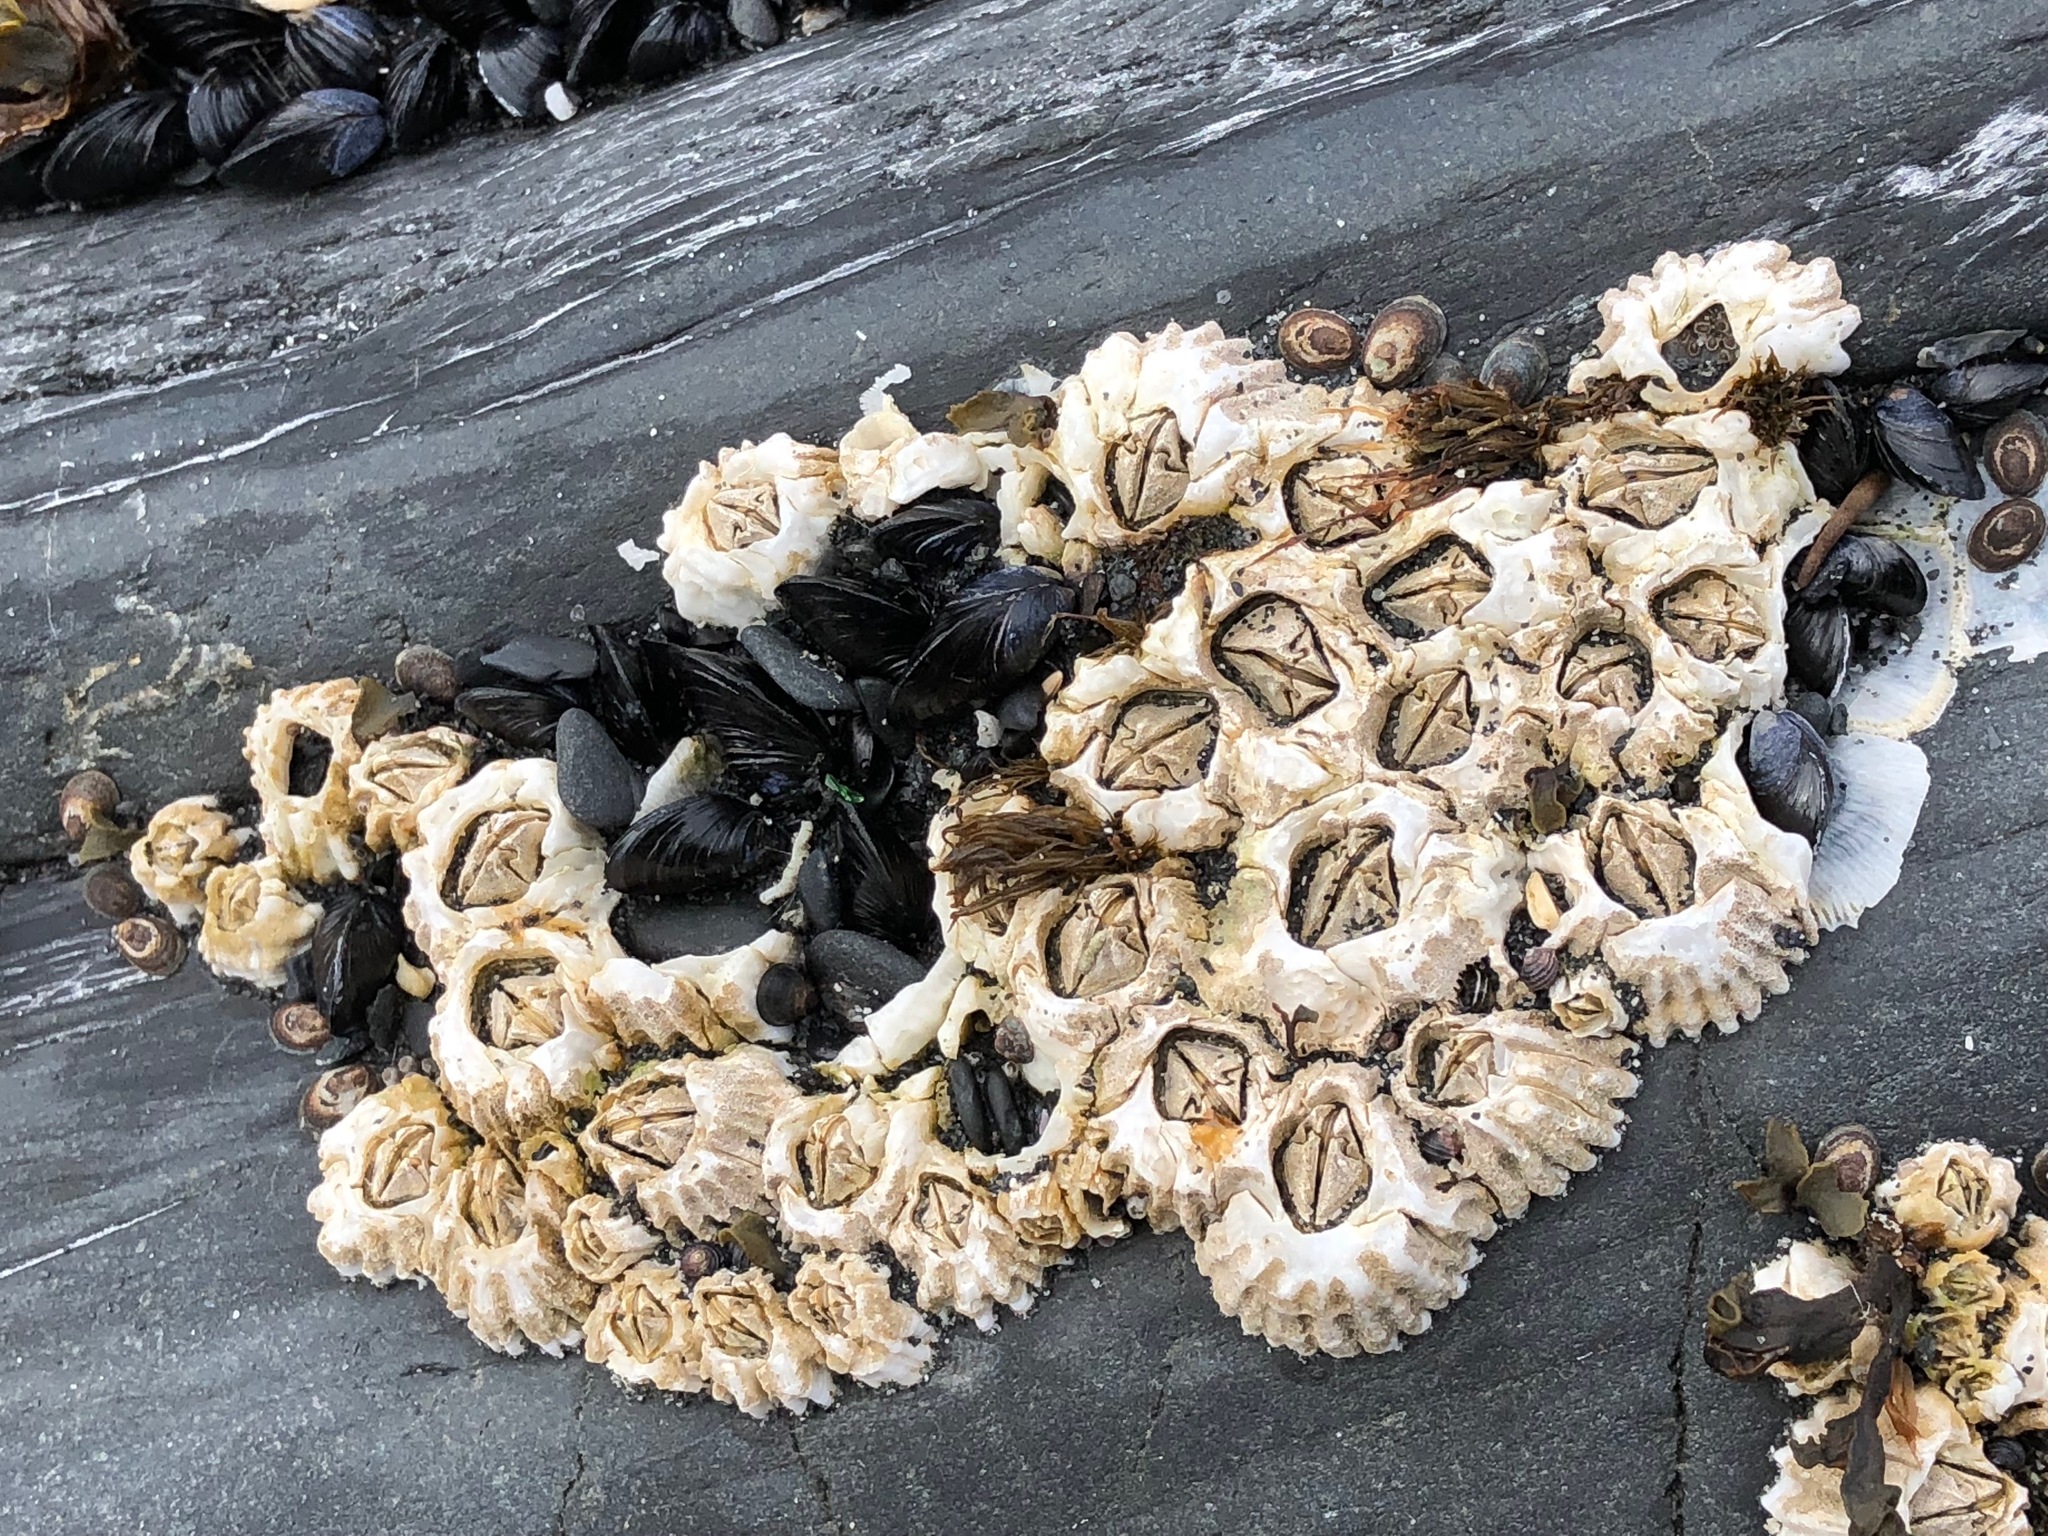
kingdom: Animalia
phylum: Arthropoda
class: Maxillopoda
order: Sessilia
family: Balanidae
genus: Balanus
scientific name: Balanus glandula
